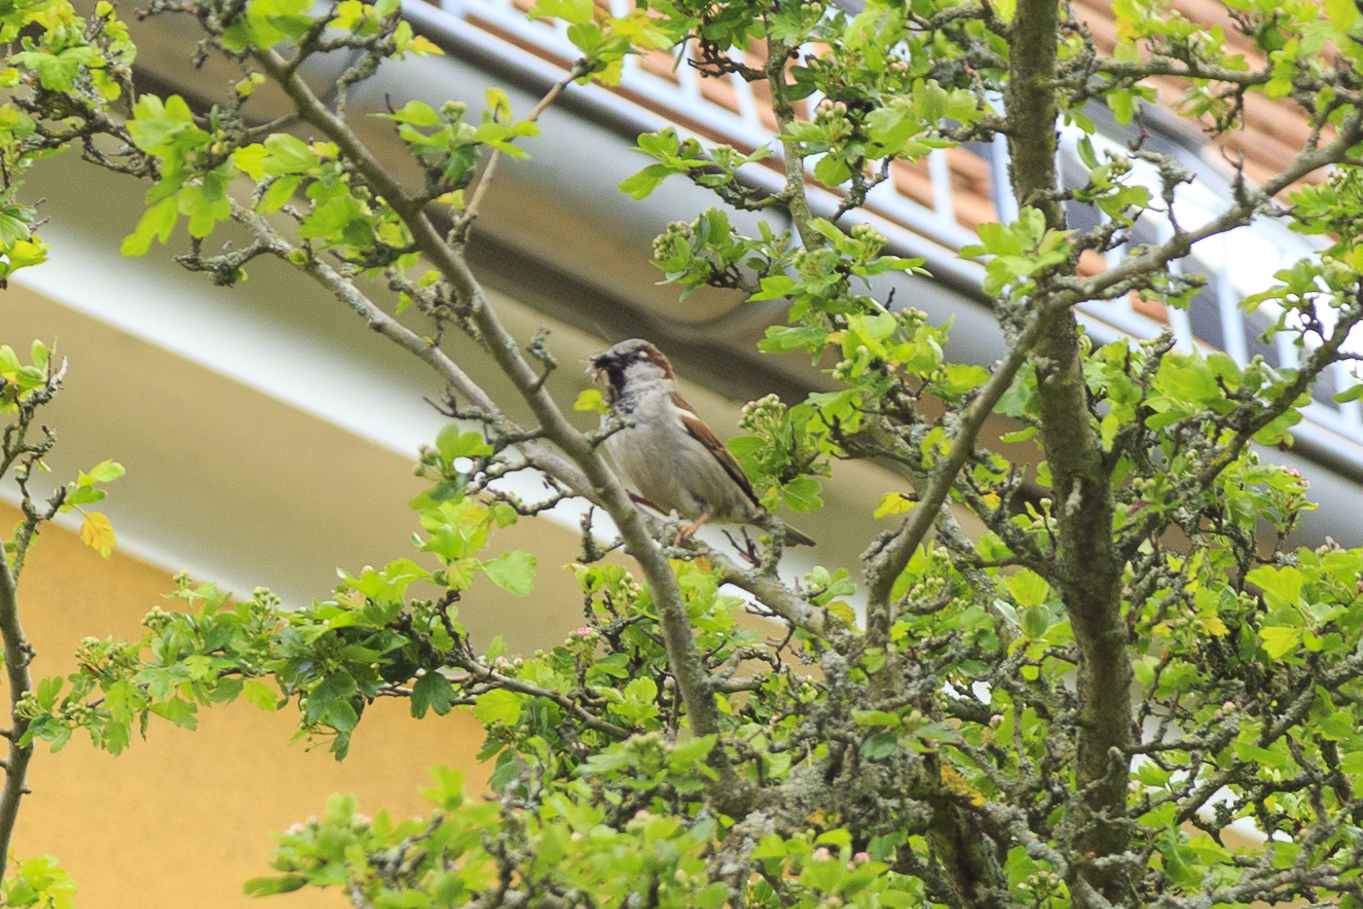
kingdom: Animalia
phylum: Chordata
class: Aves
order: Passeriformes
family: Passeridae
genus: Passer
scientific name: Passer domesticus
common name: House sparrow
